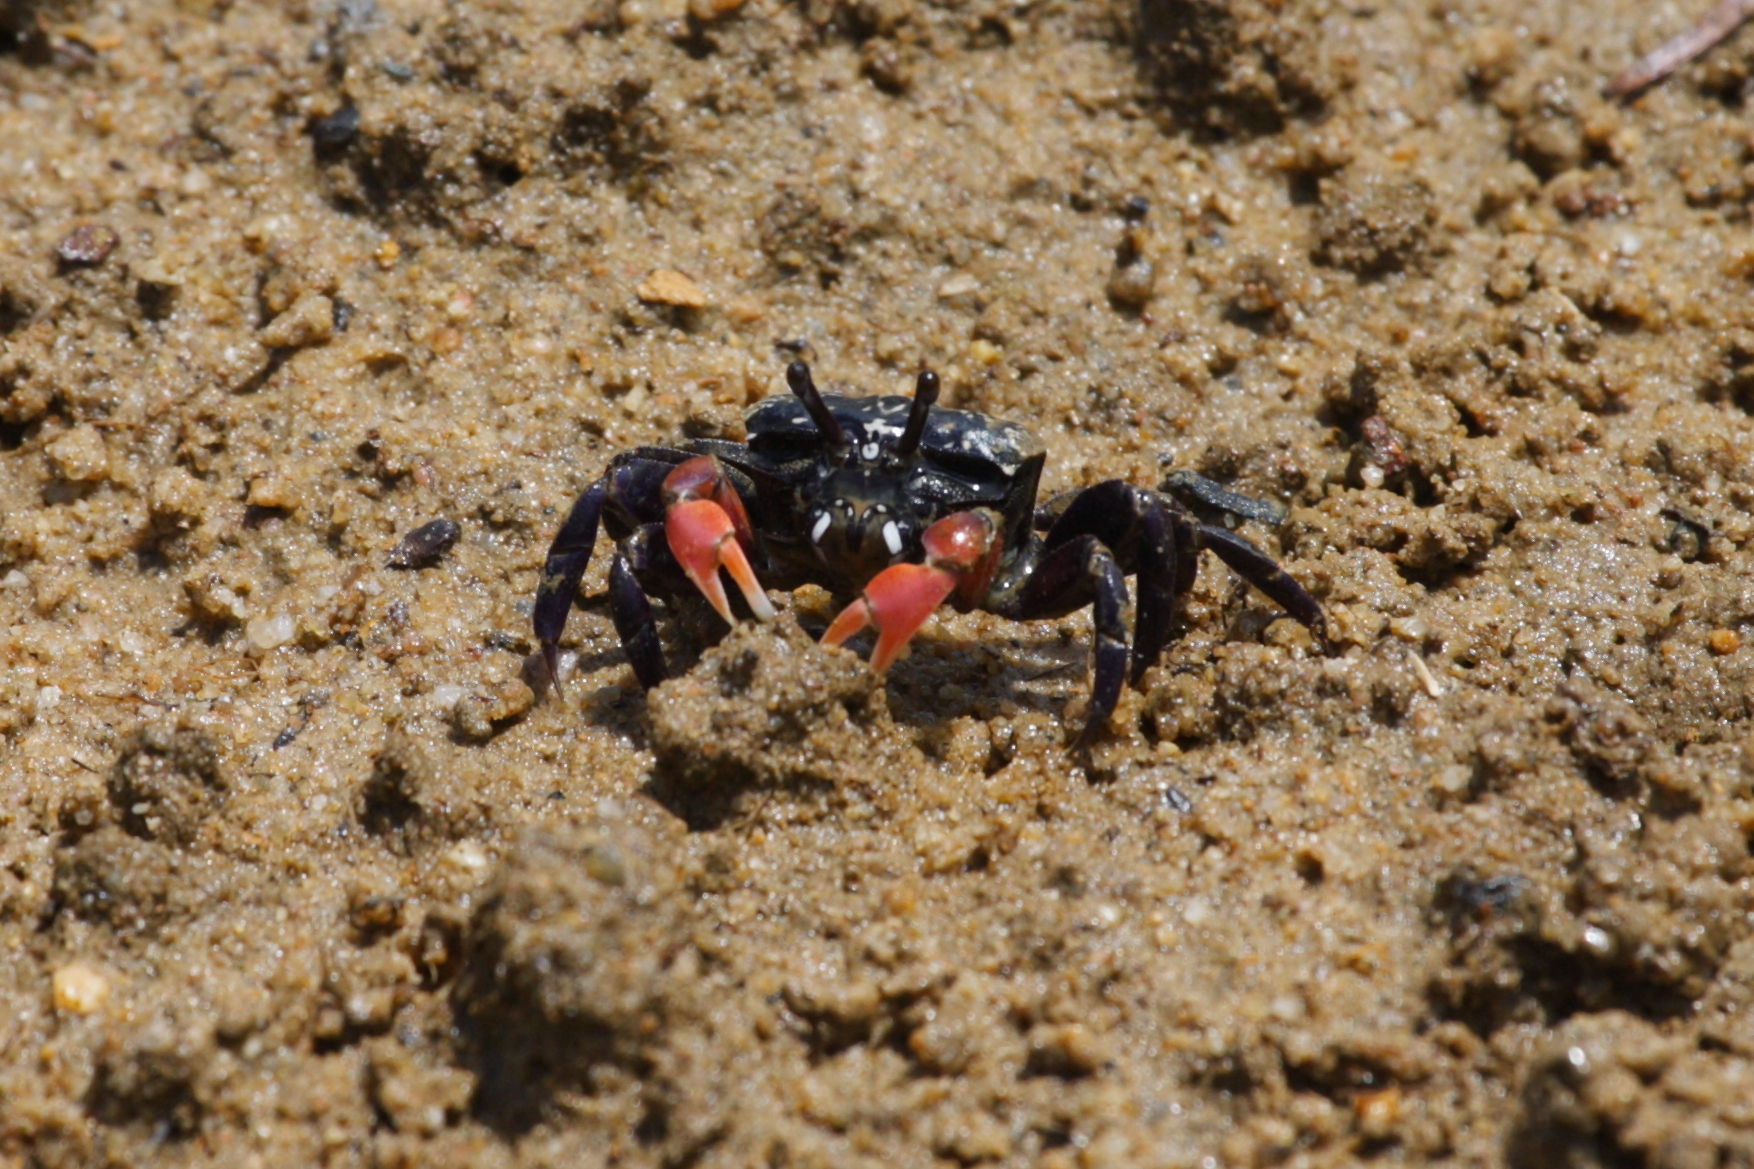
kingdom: Animalia
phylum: Arthropoda
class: Malacostraca
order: Decapoda
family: Heloeciidae
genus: Heloecius
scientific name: Heloecius cordiformis
